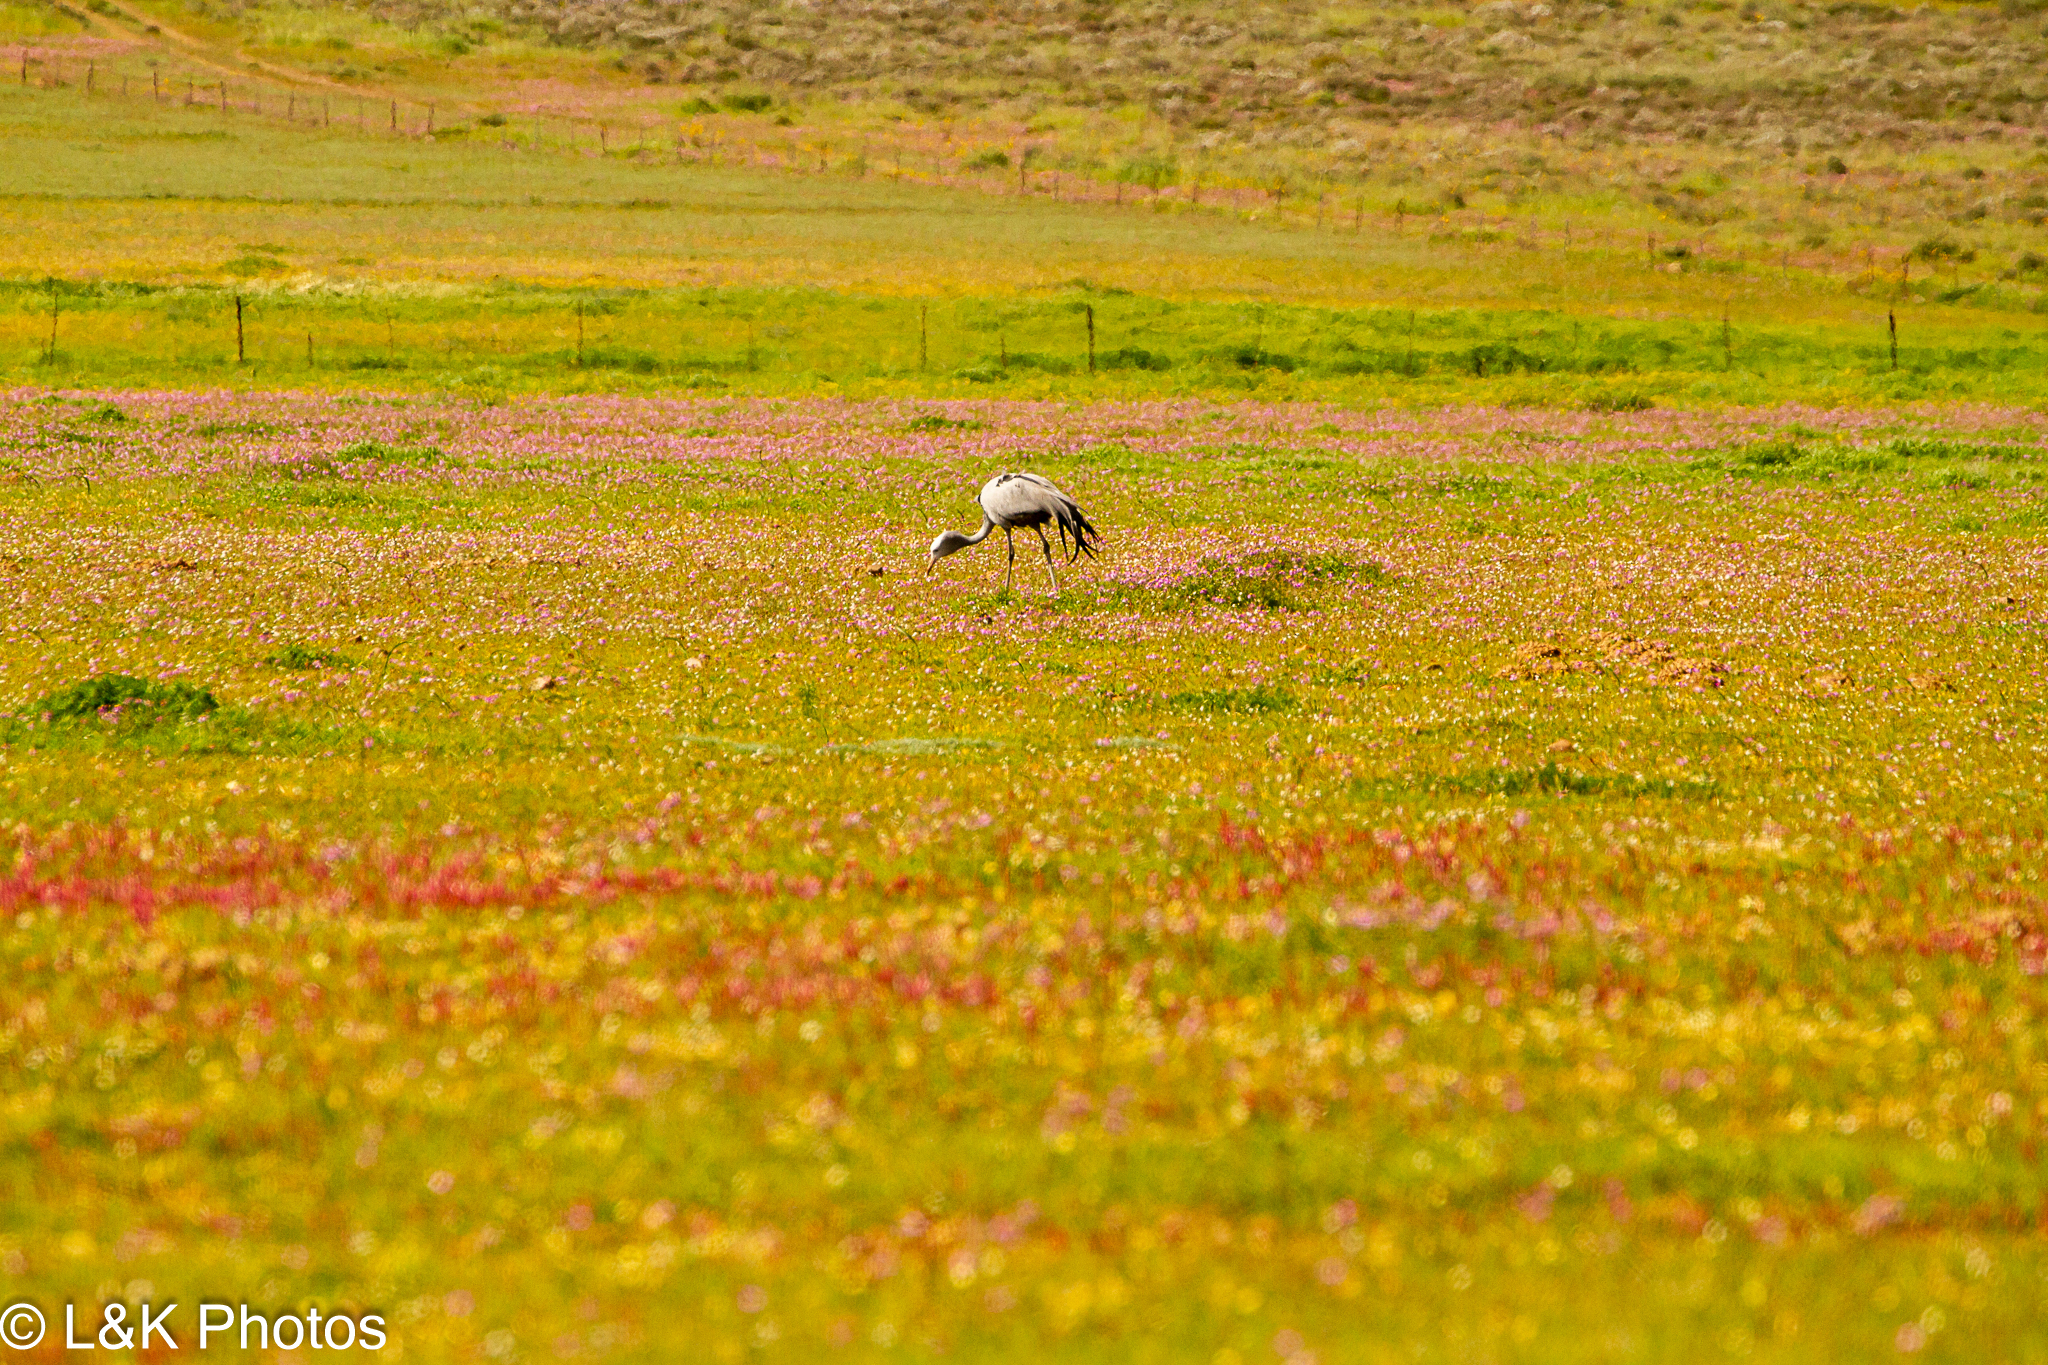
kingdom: Animalia
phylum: Chordata
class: Aves
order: Gruiformes
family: Gruidae
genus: Anthropoides
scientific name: Anthropoides paradiseus
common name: Blue crane
